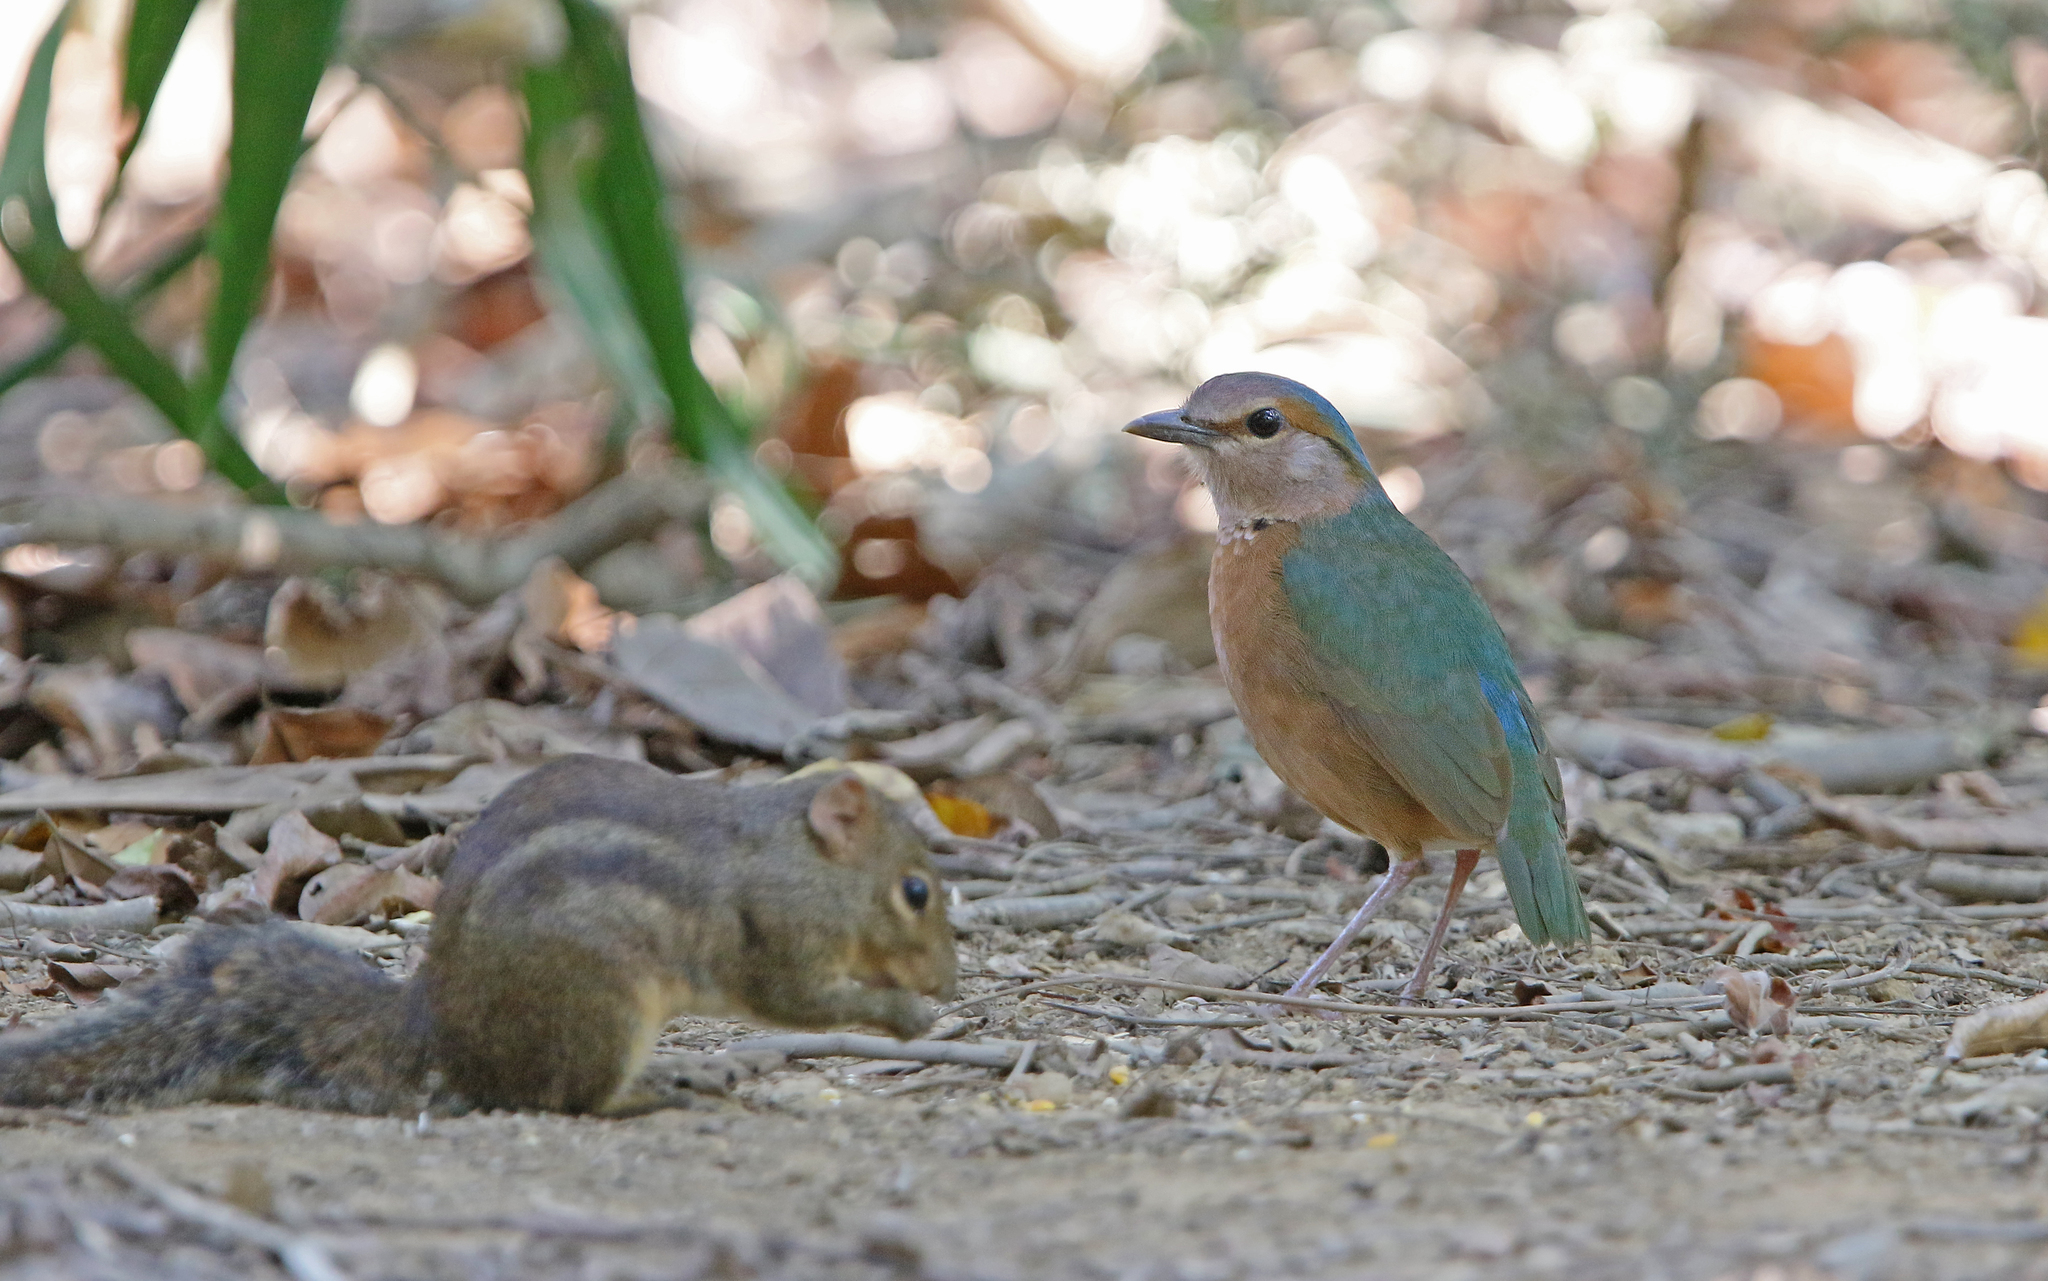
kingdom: Animalia
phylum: Chordata
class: Aves
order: Passeriformes
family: Pittidae
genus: Pitta
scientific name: Pitta soror
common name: Blue-rumped pitta
